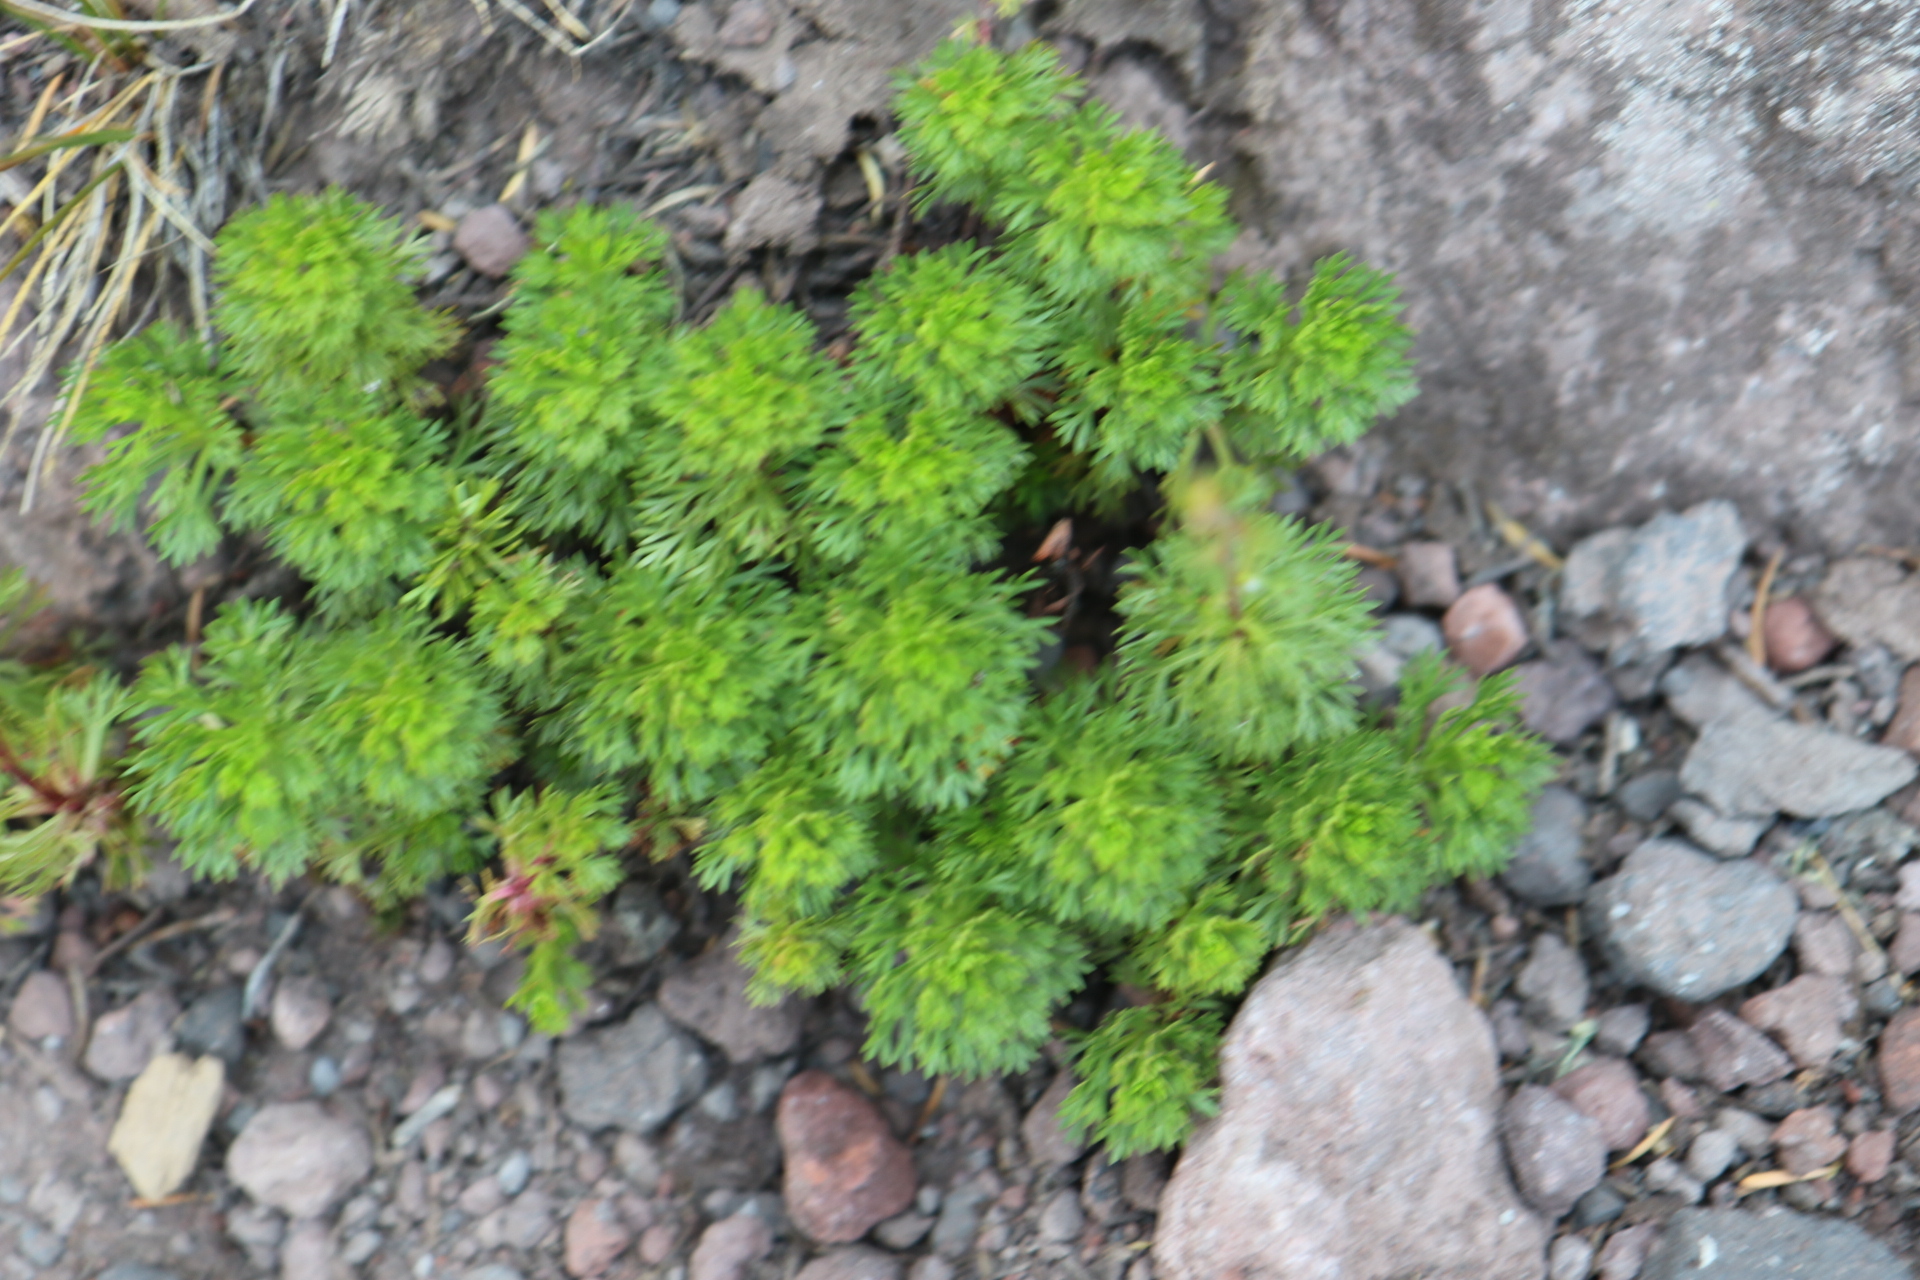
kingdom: Plantae
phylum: Tracheophyta
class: Magnoliopsida
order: Rosales
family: Rosaceae
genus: Luetkea
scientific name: Luetkea pectinata
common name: Partridgefoot
